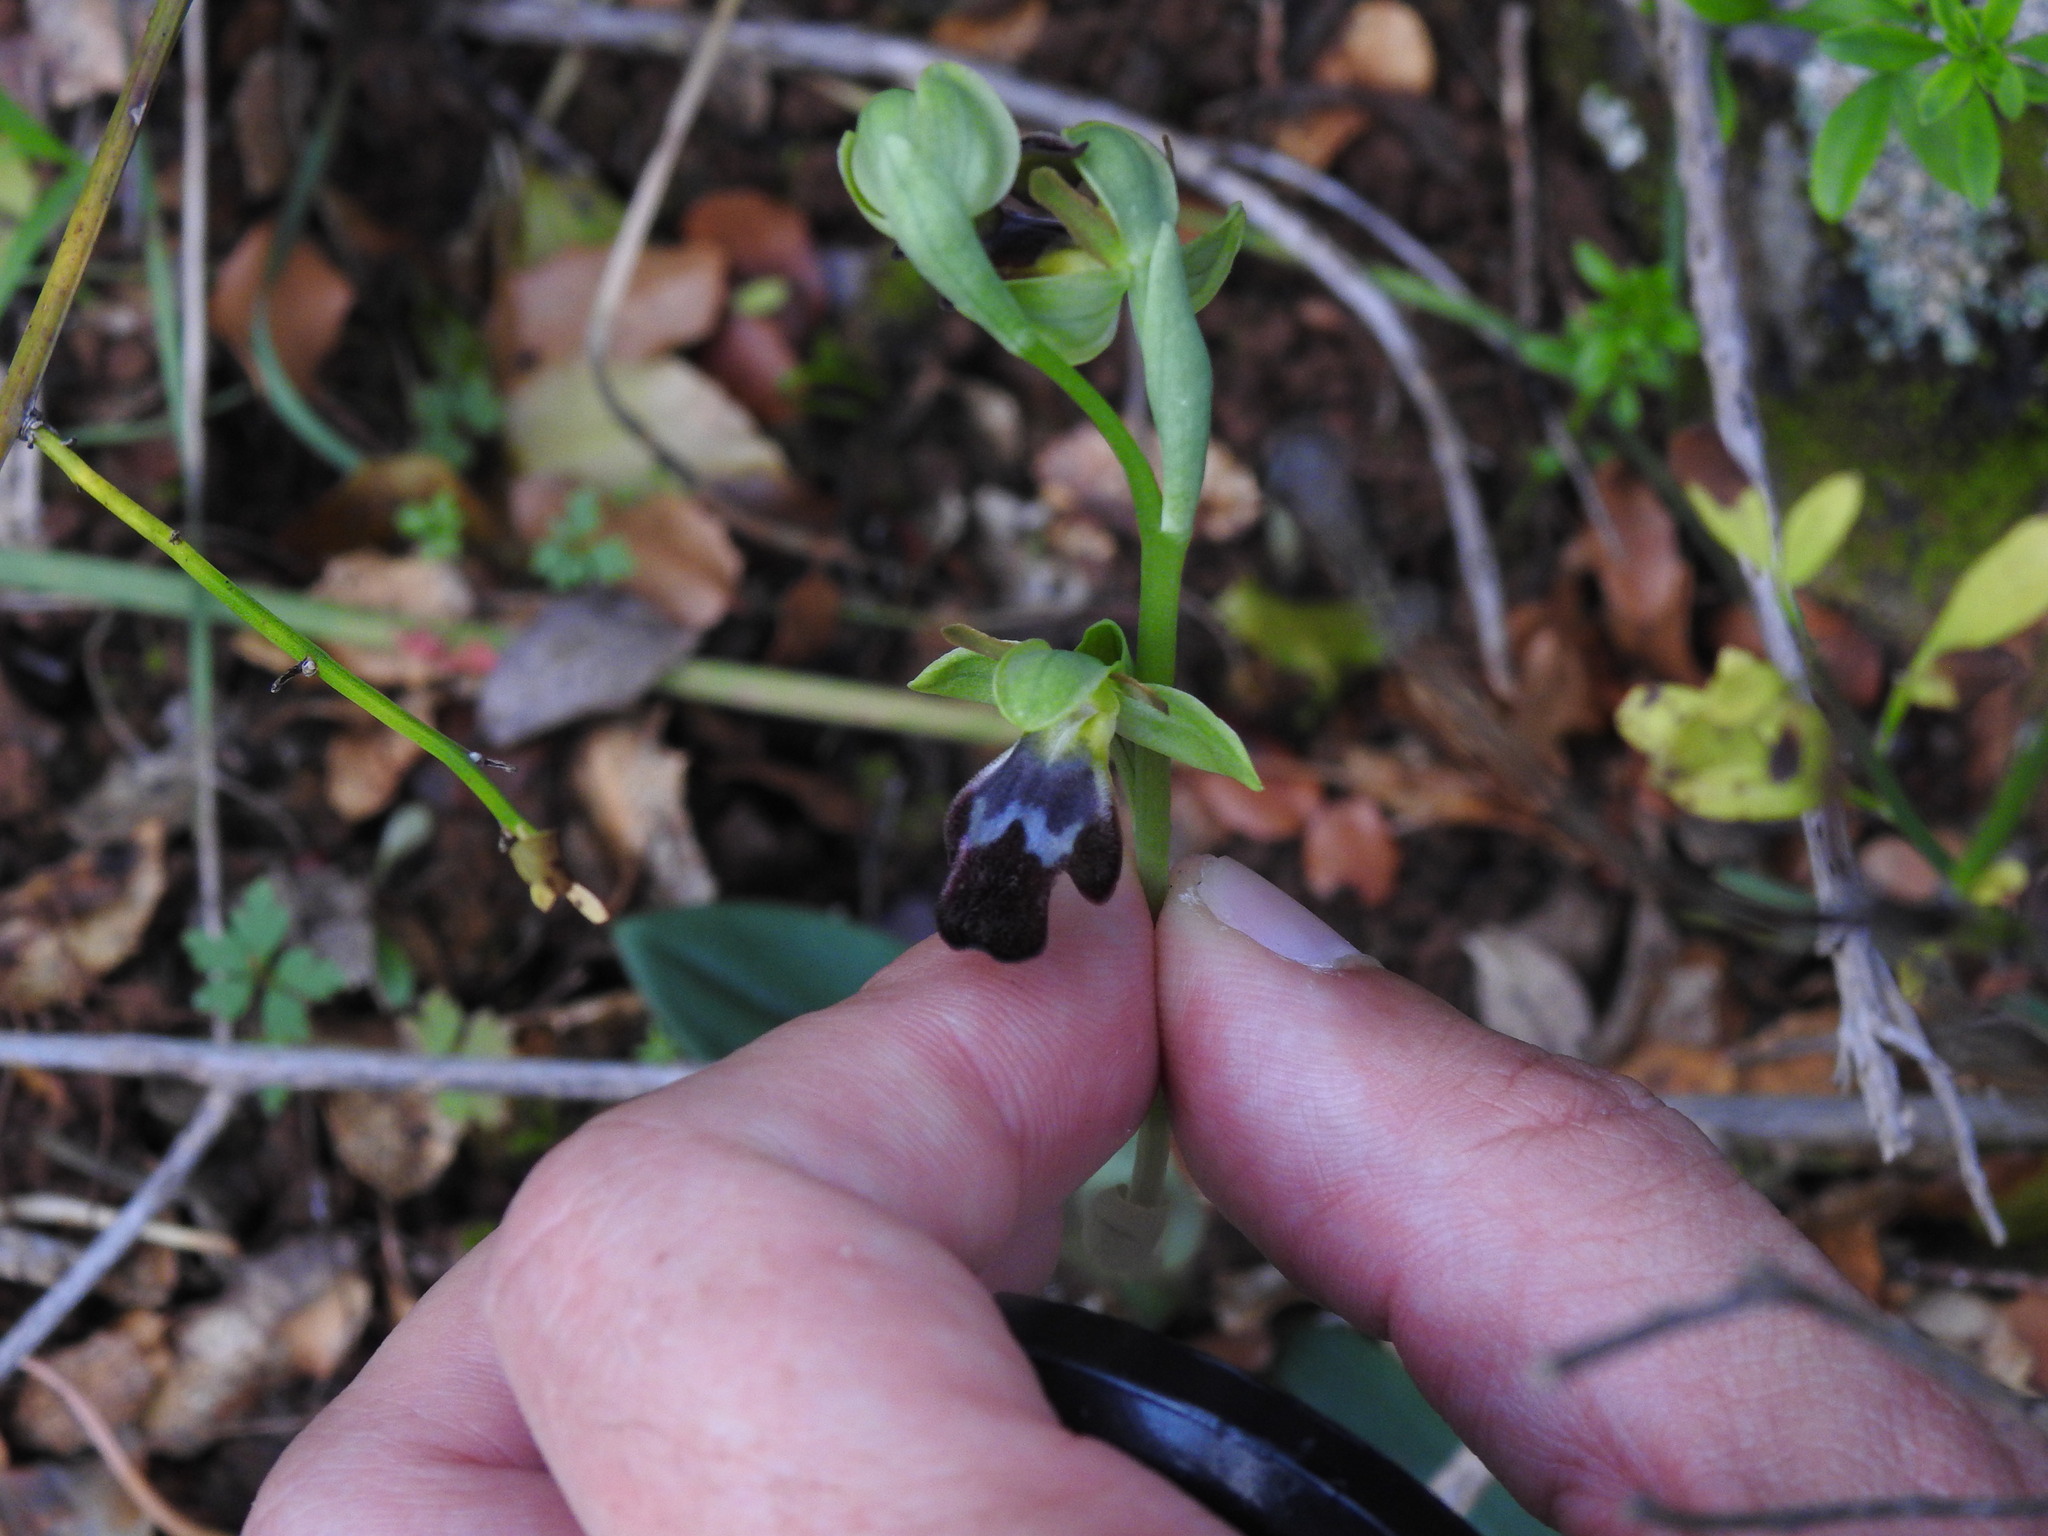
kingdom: Plantae
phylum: Tracheophyta
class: Liliopsida
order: Asparagales
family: Orchidaceae
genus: Ophrys
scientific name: Ophrys fusca
